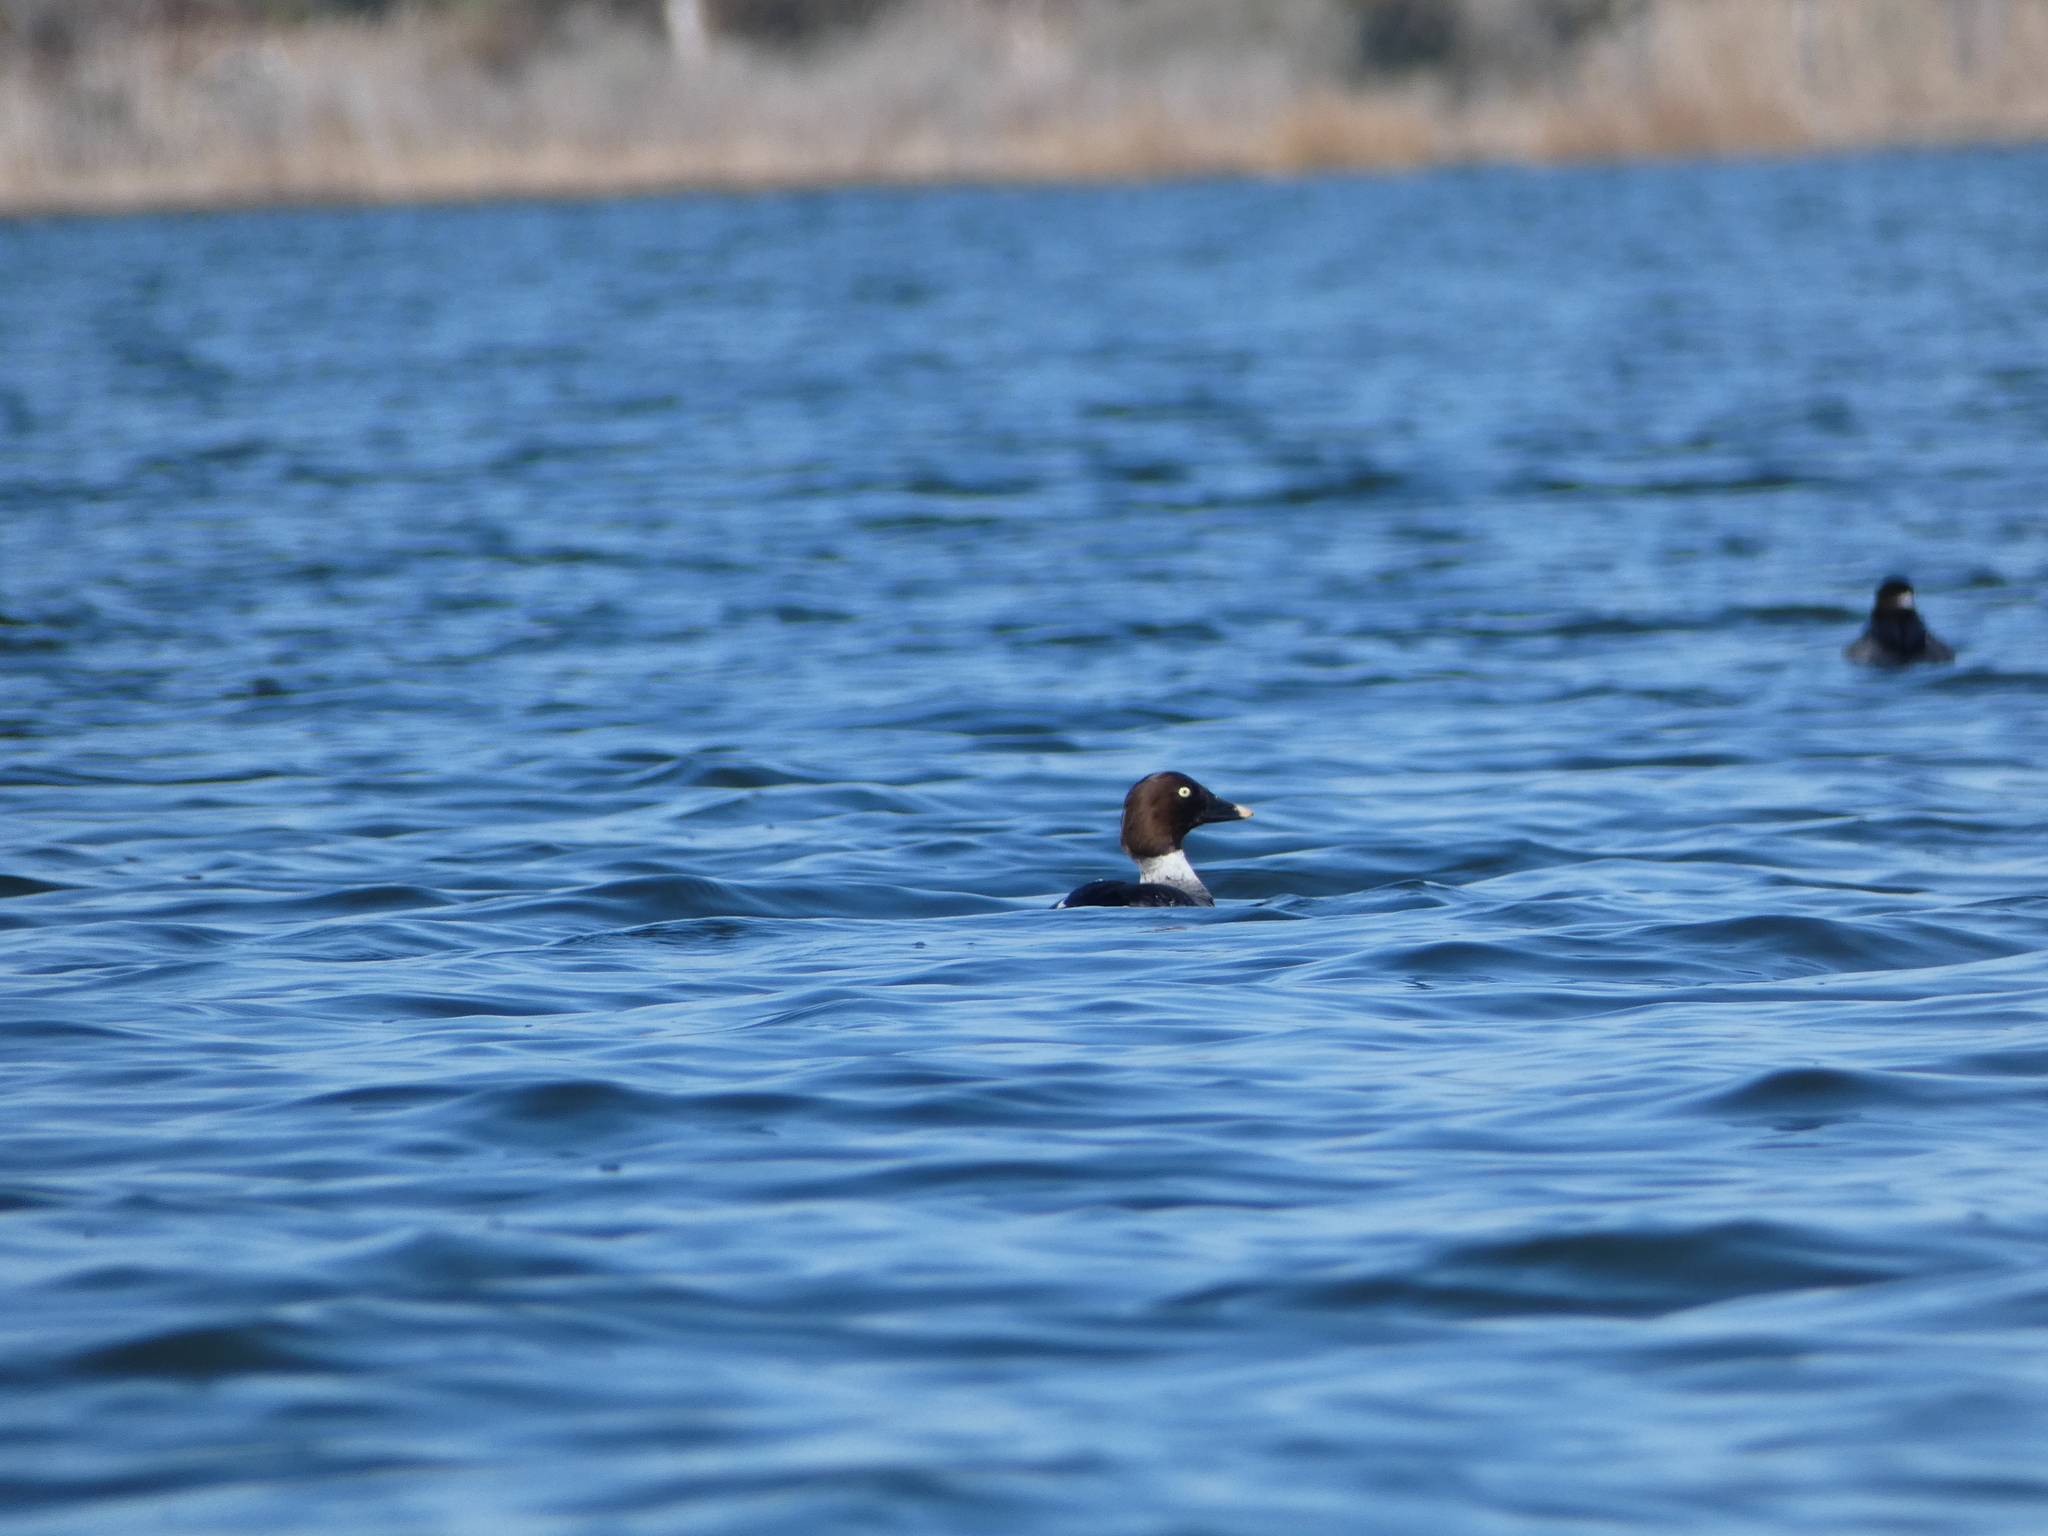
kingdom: Animalia
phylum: Chordata
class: Aves
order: Anseriformes
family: Anatidae
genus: Bucephala
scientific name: Bucephala clangula
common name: Common goldeneye
